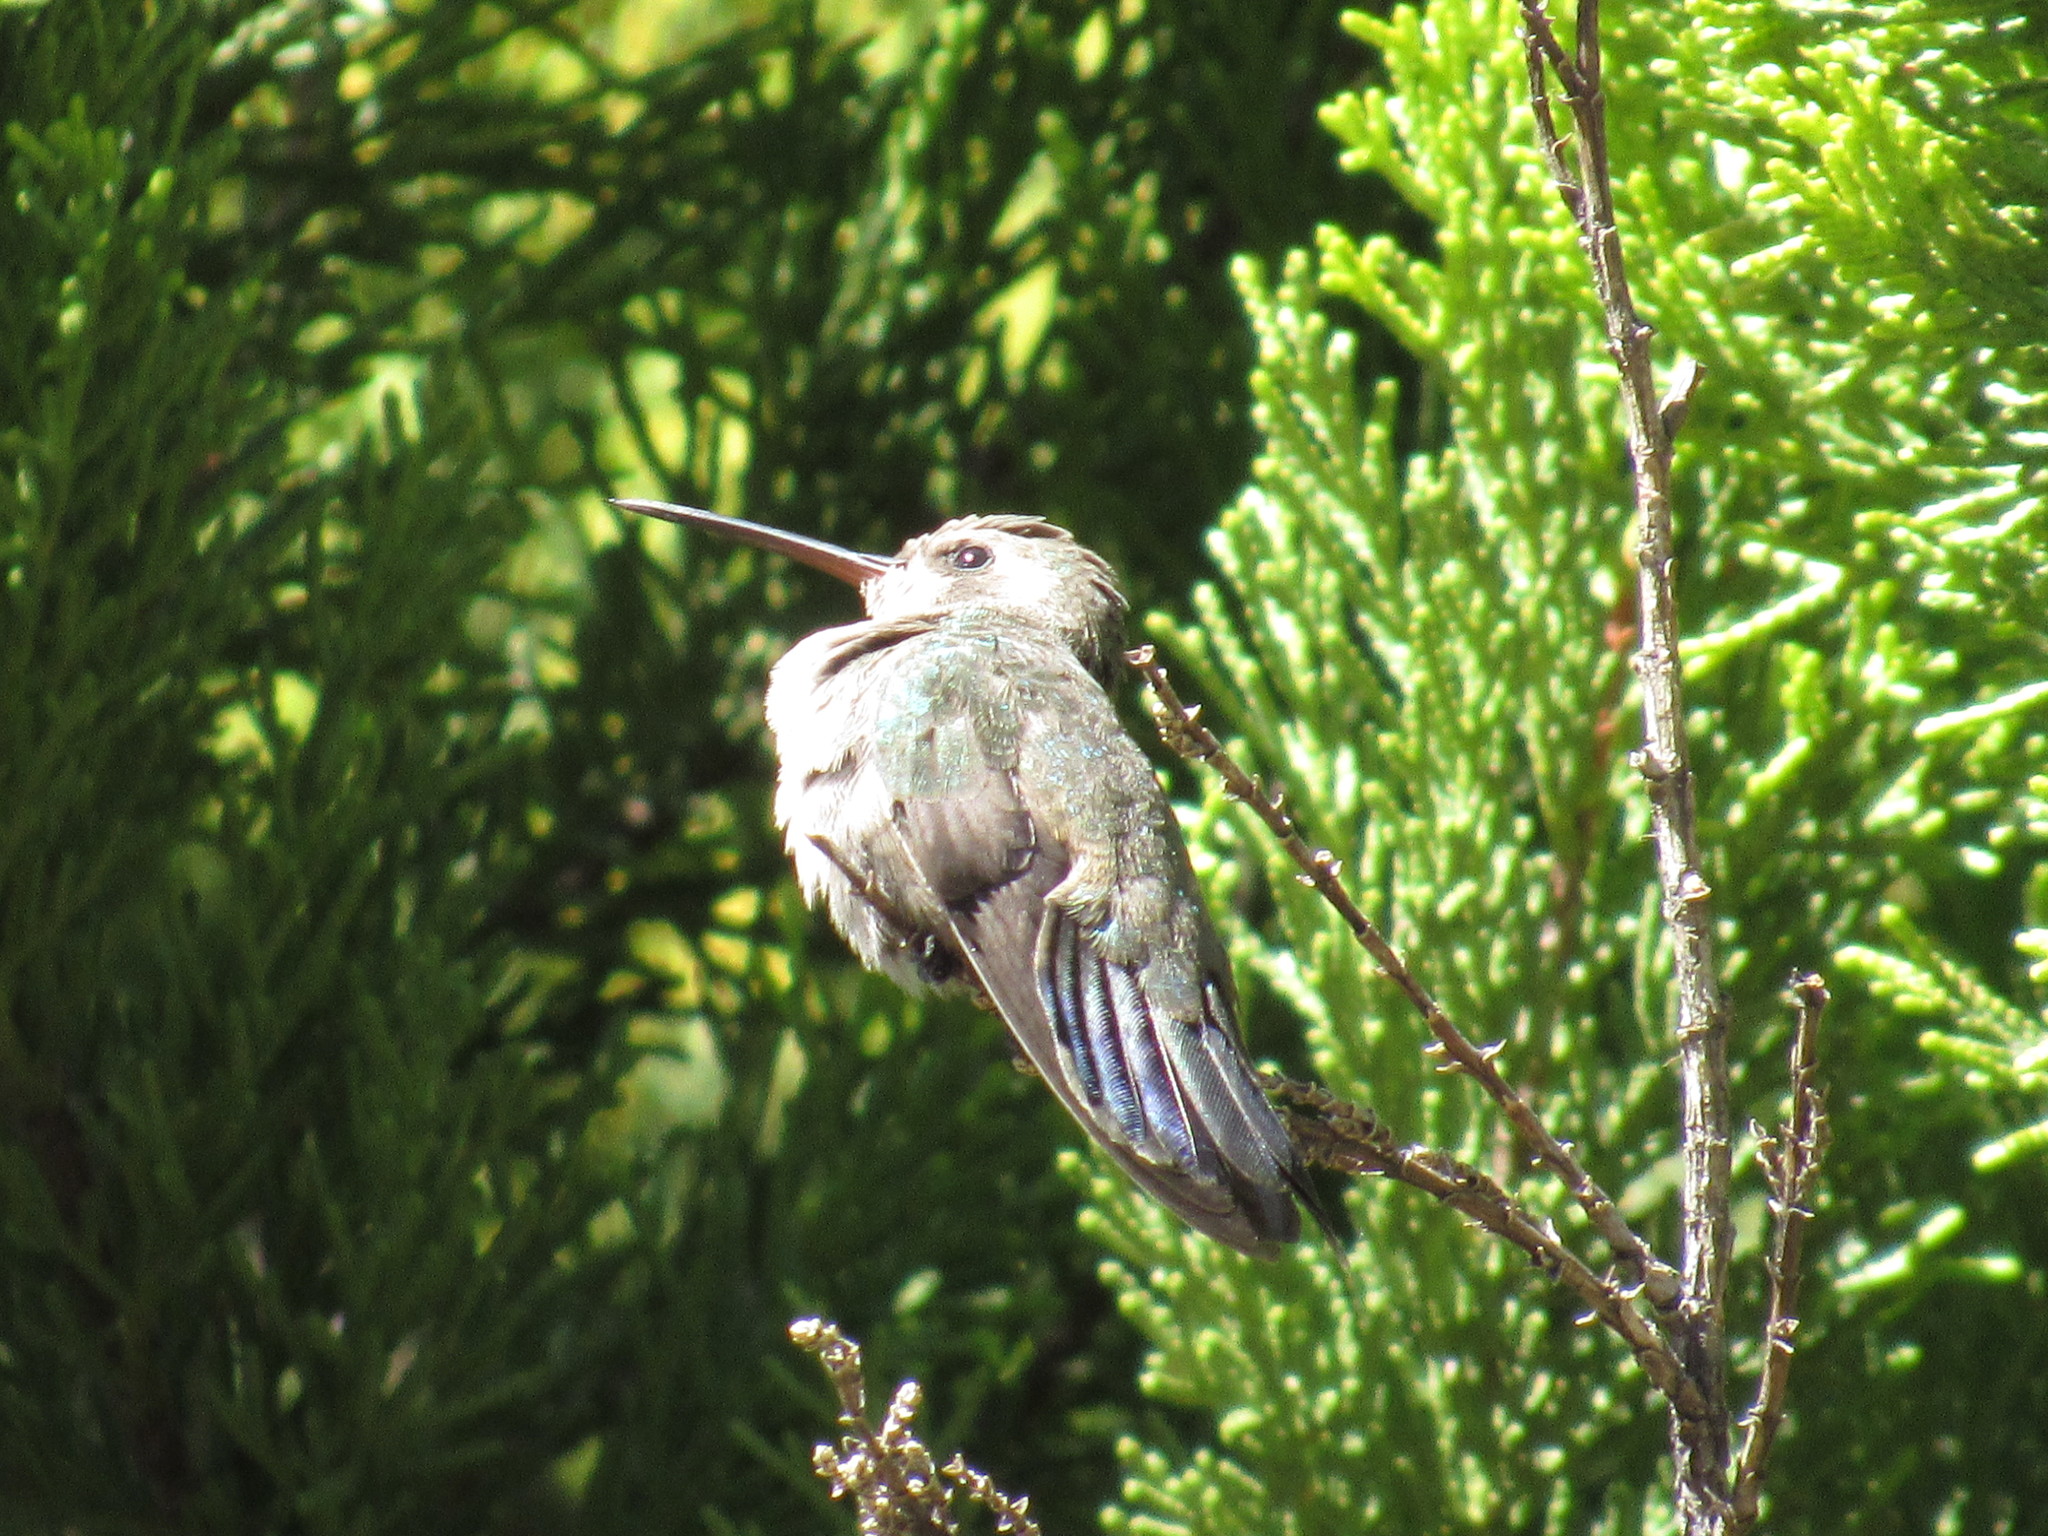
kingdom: Animalia
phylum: Chordata
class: Aves
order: Apodiformes
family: Trochilidae
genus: Cynanthus
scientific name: Cynanthus latirostris
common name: Broad-billed hummingbird
